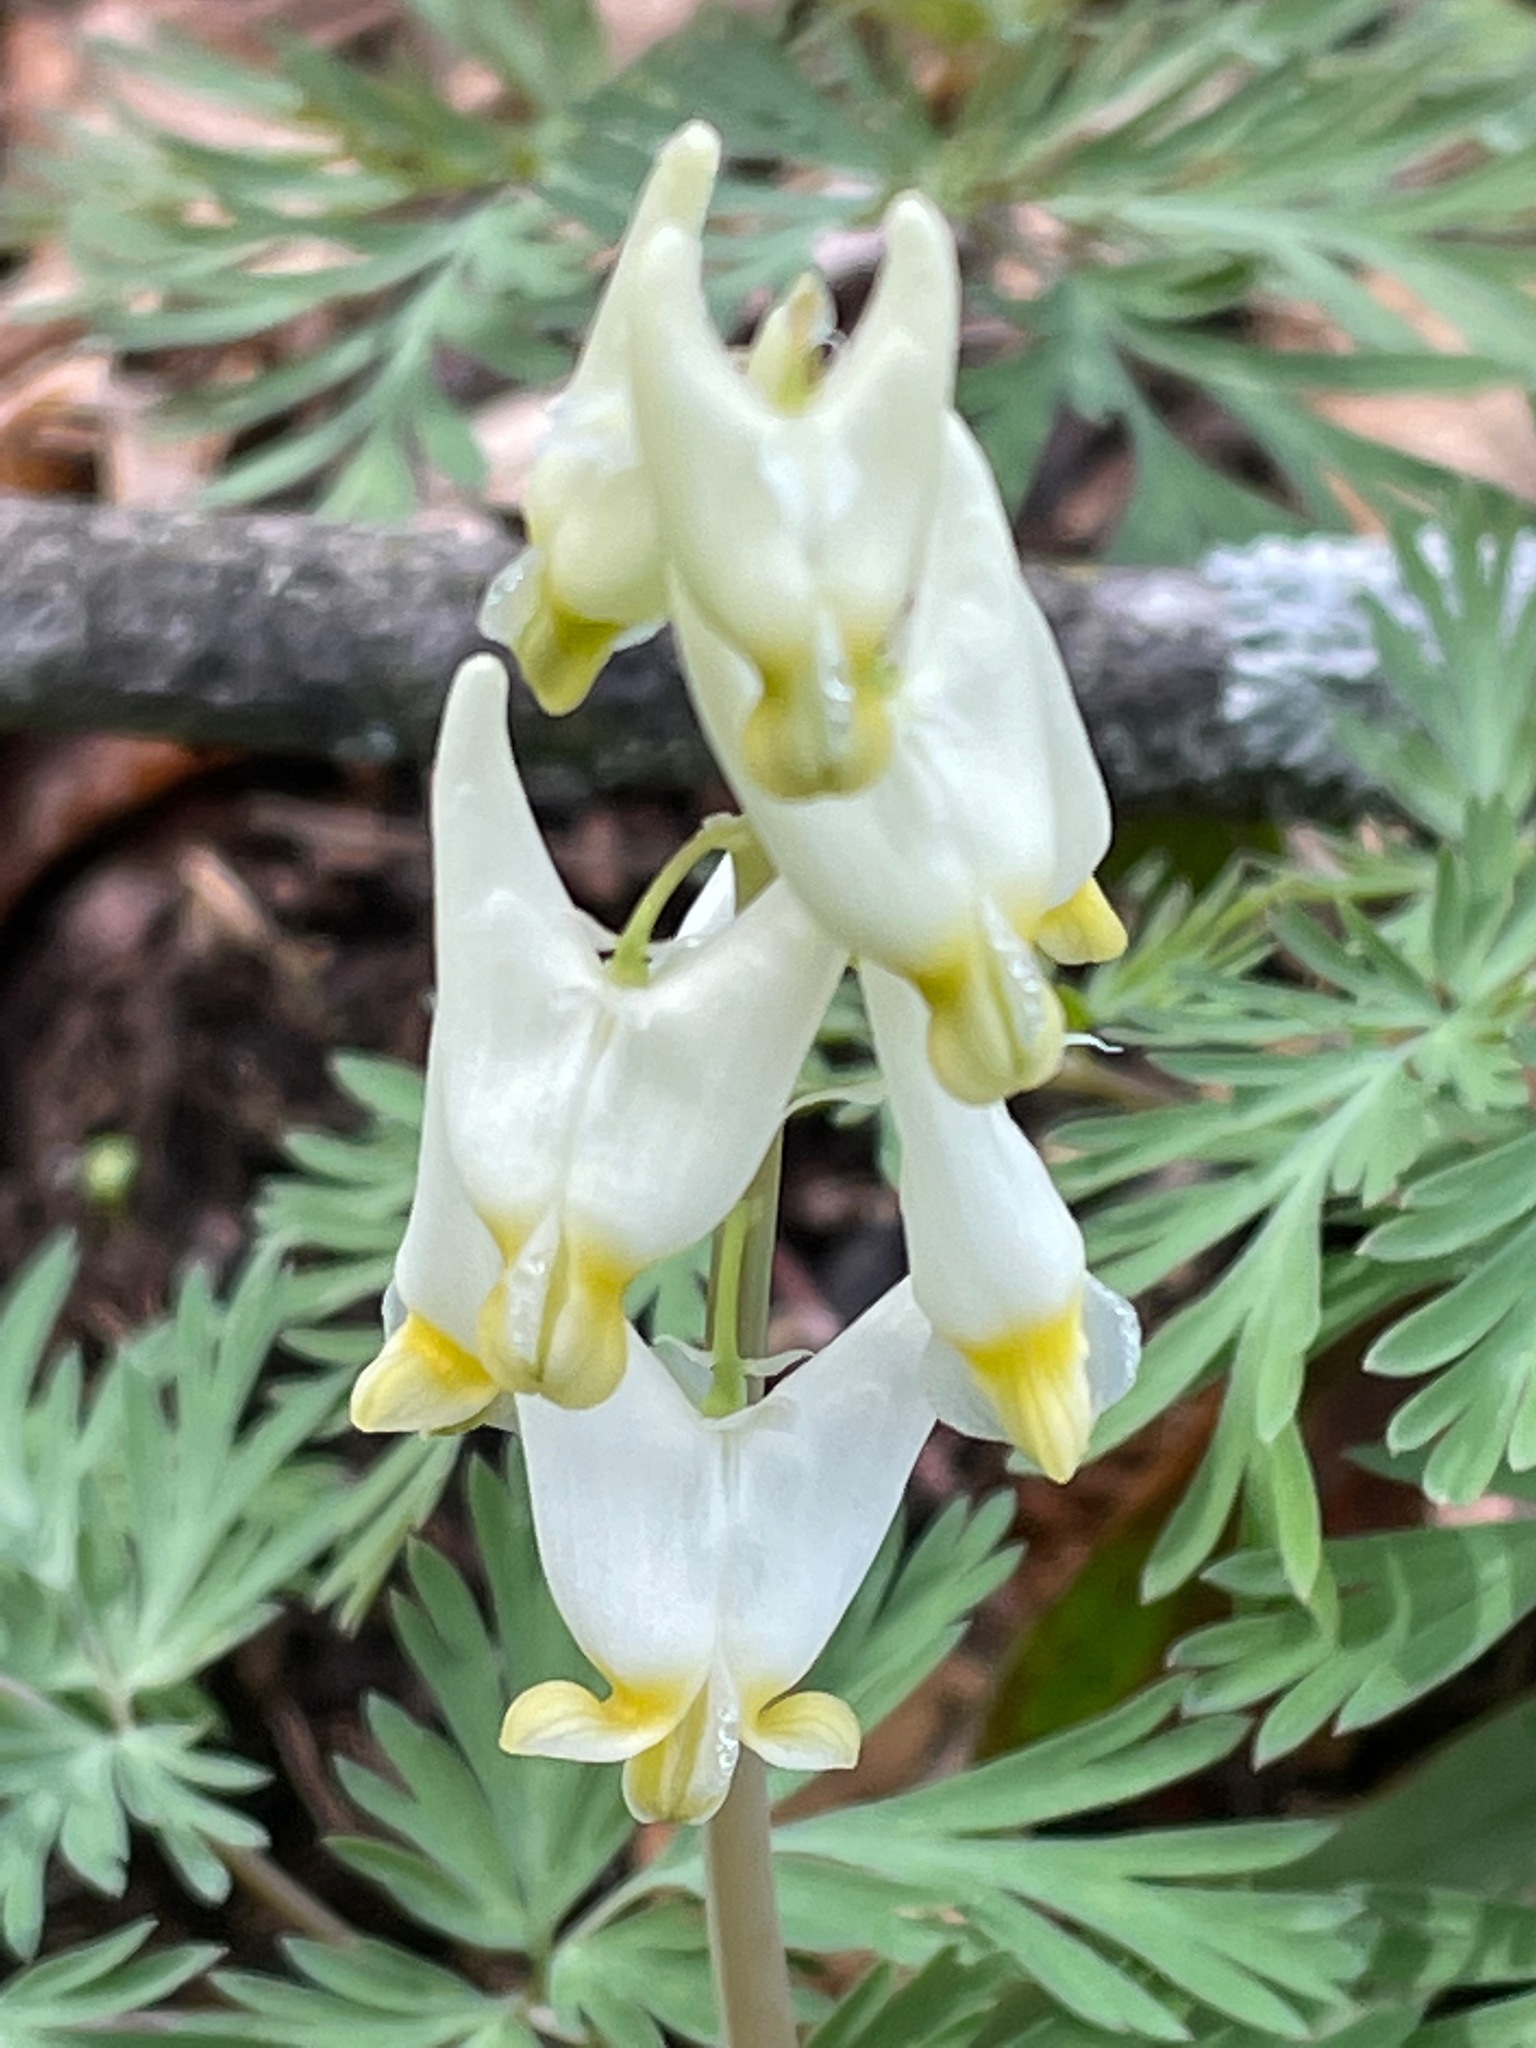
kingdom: Plantae
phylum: Tracheophyta
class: Magnoliopsida
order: Ranunculales
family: Papaveraceae
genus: Dicentra
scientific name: Dicentra cucullaria
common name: Dutchman's breeches
